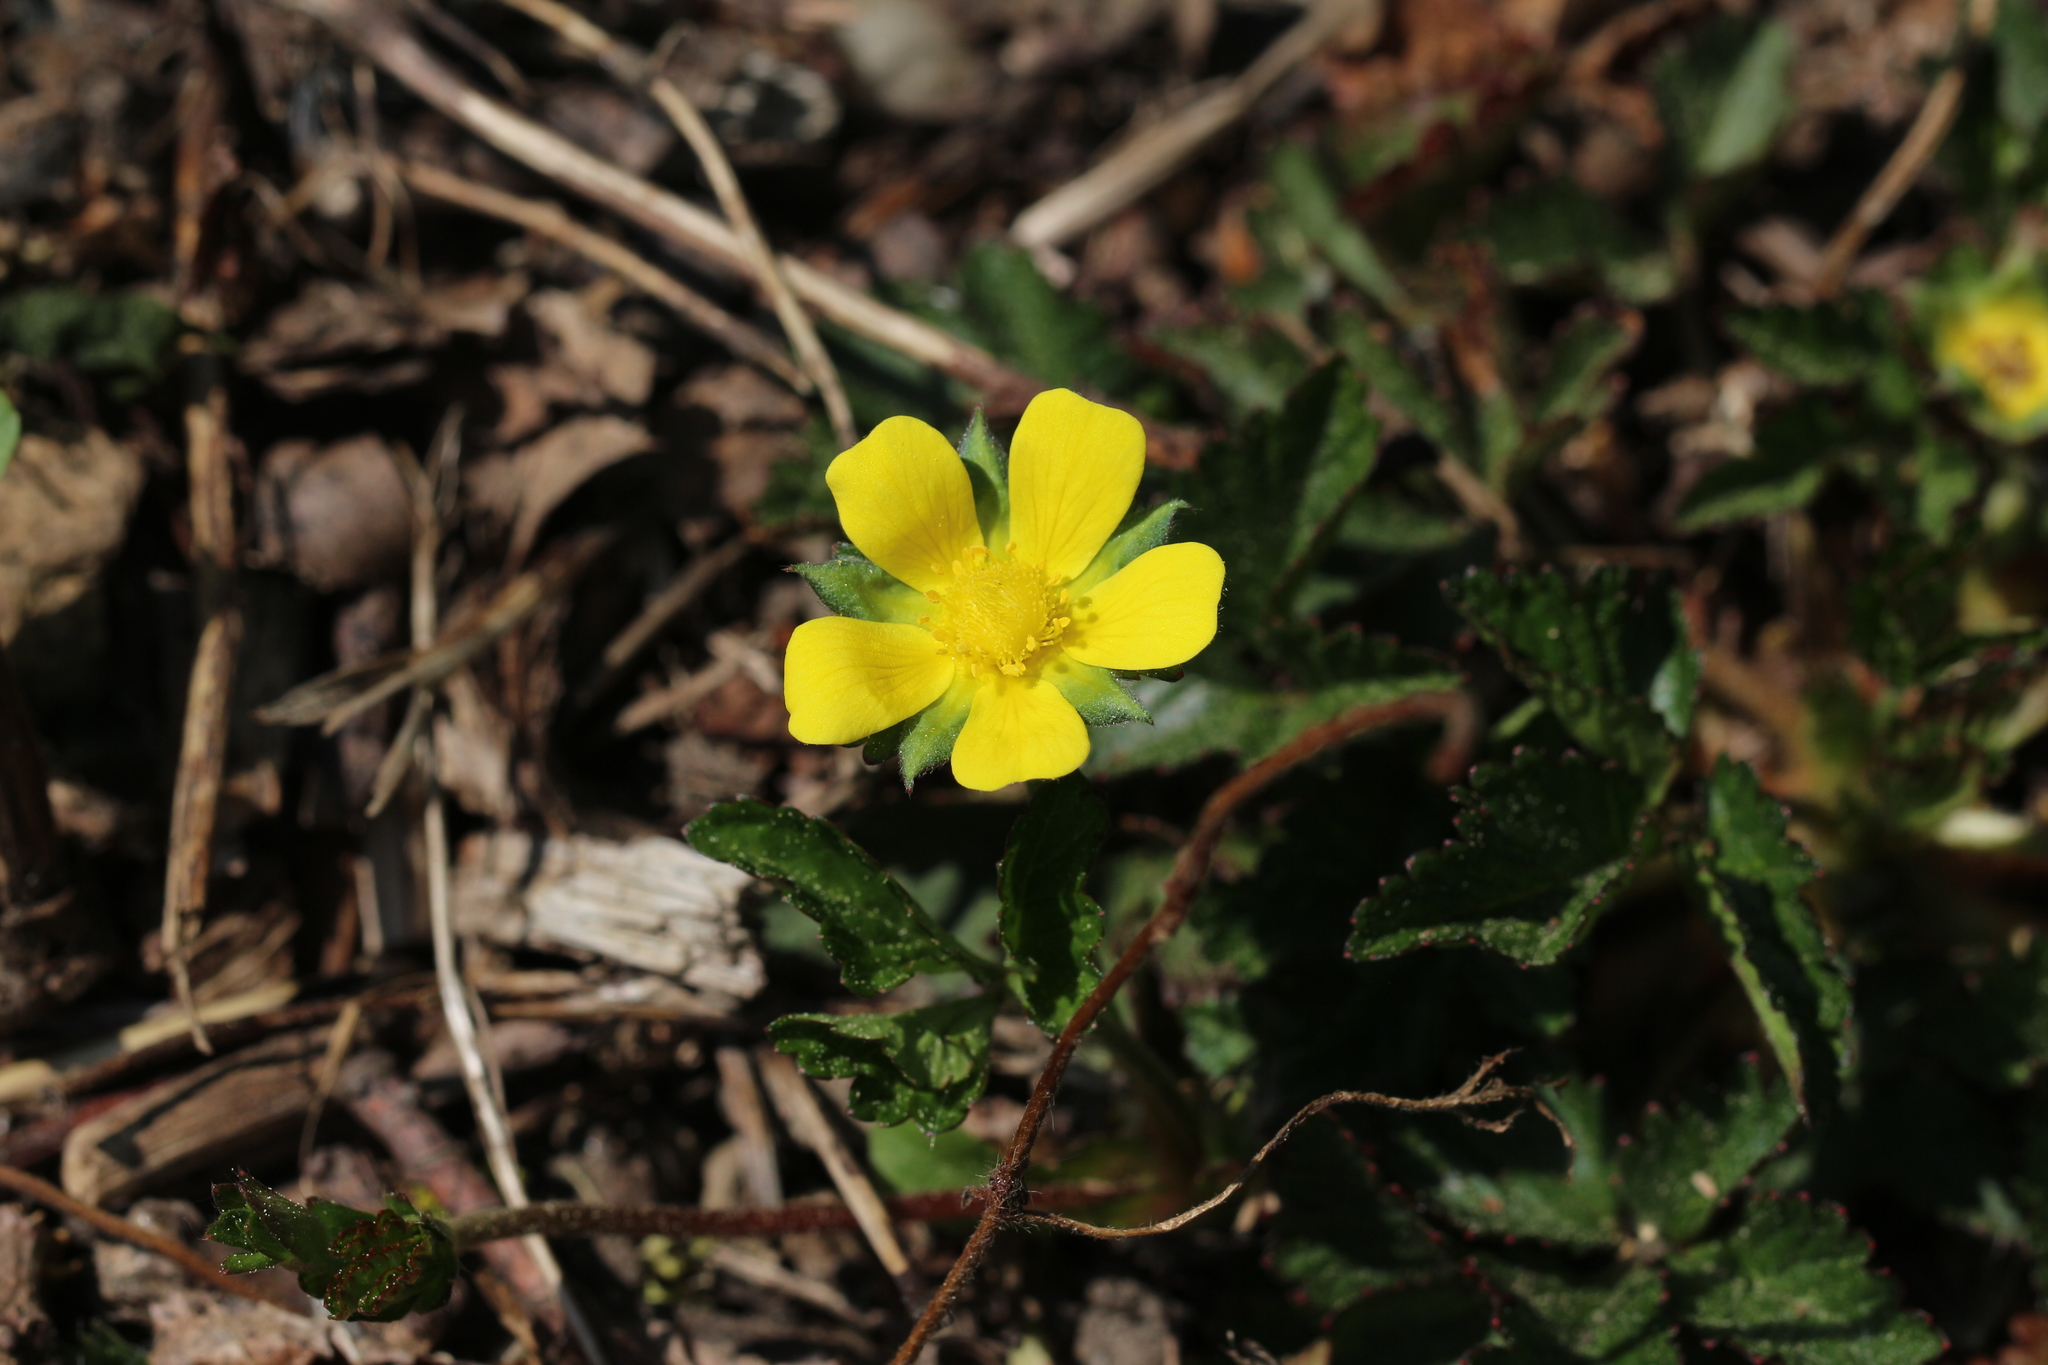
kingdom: Plantae
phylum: Tracheophyta
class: Magnoliopsida
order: Rosales
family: Rosaceae
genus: Potentilla
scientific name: Potentilla indica
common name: Yellow-flowered strawberry
